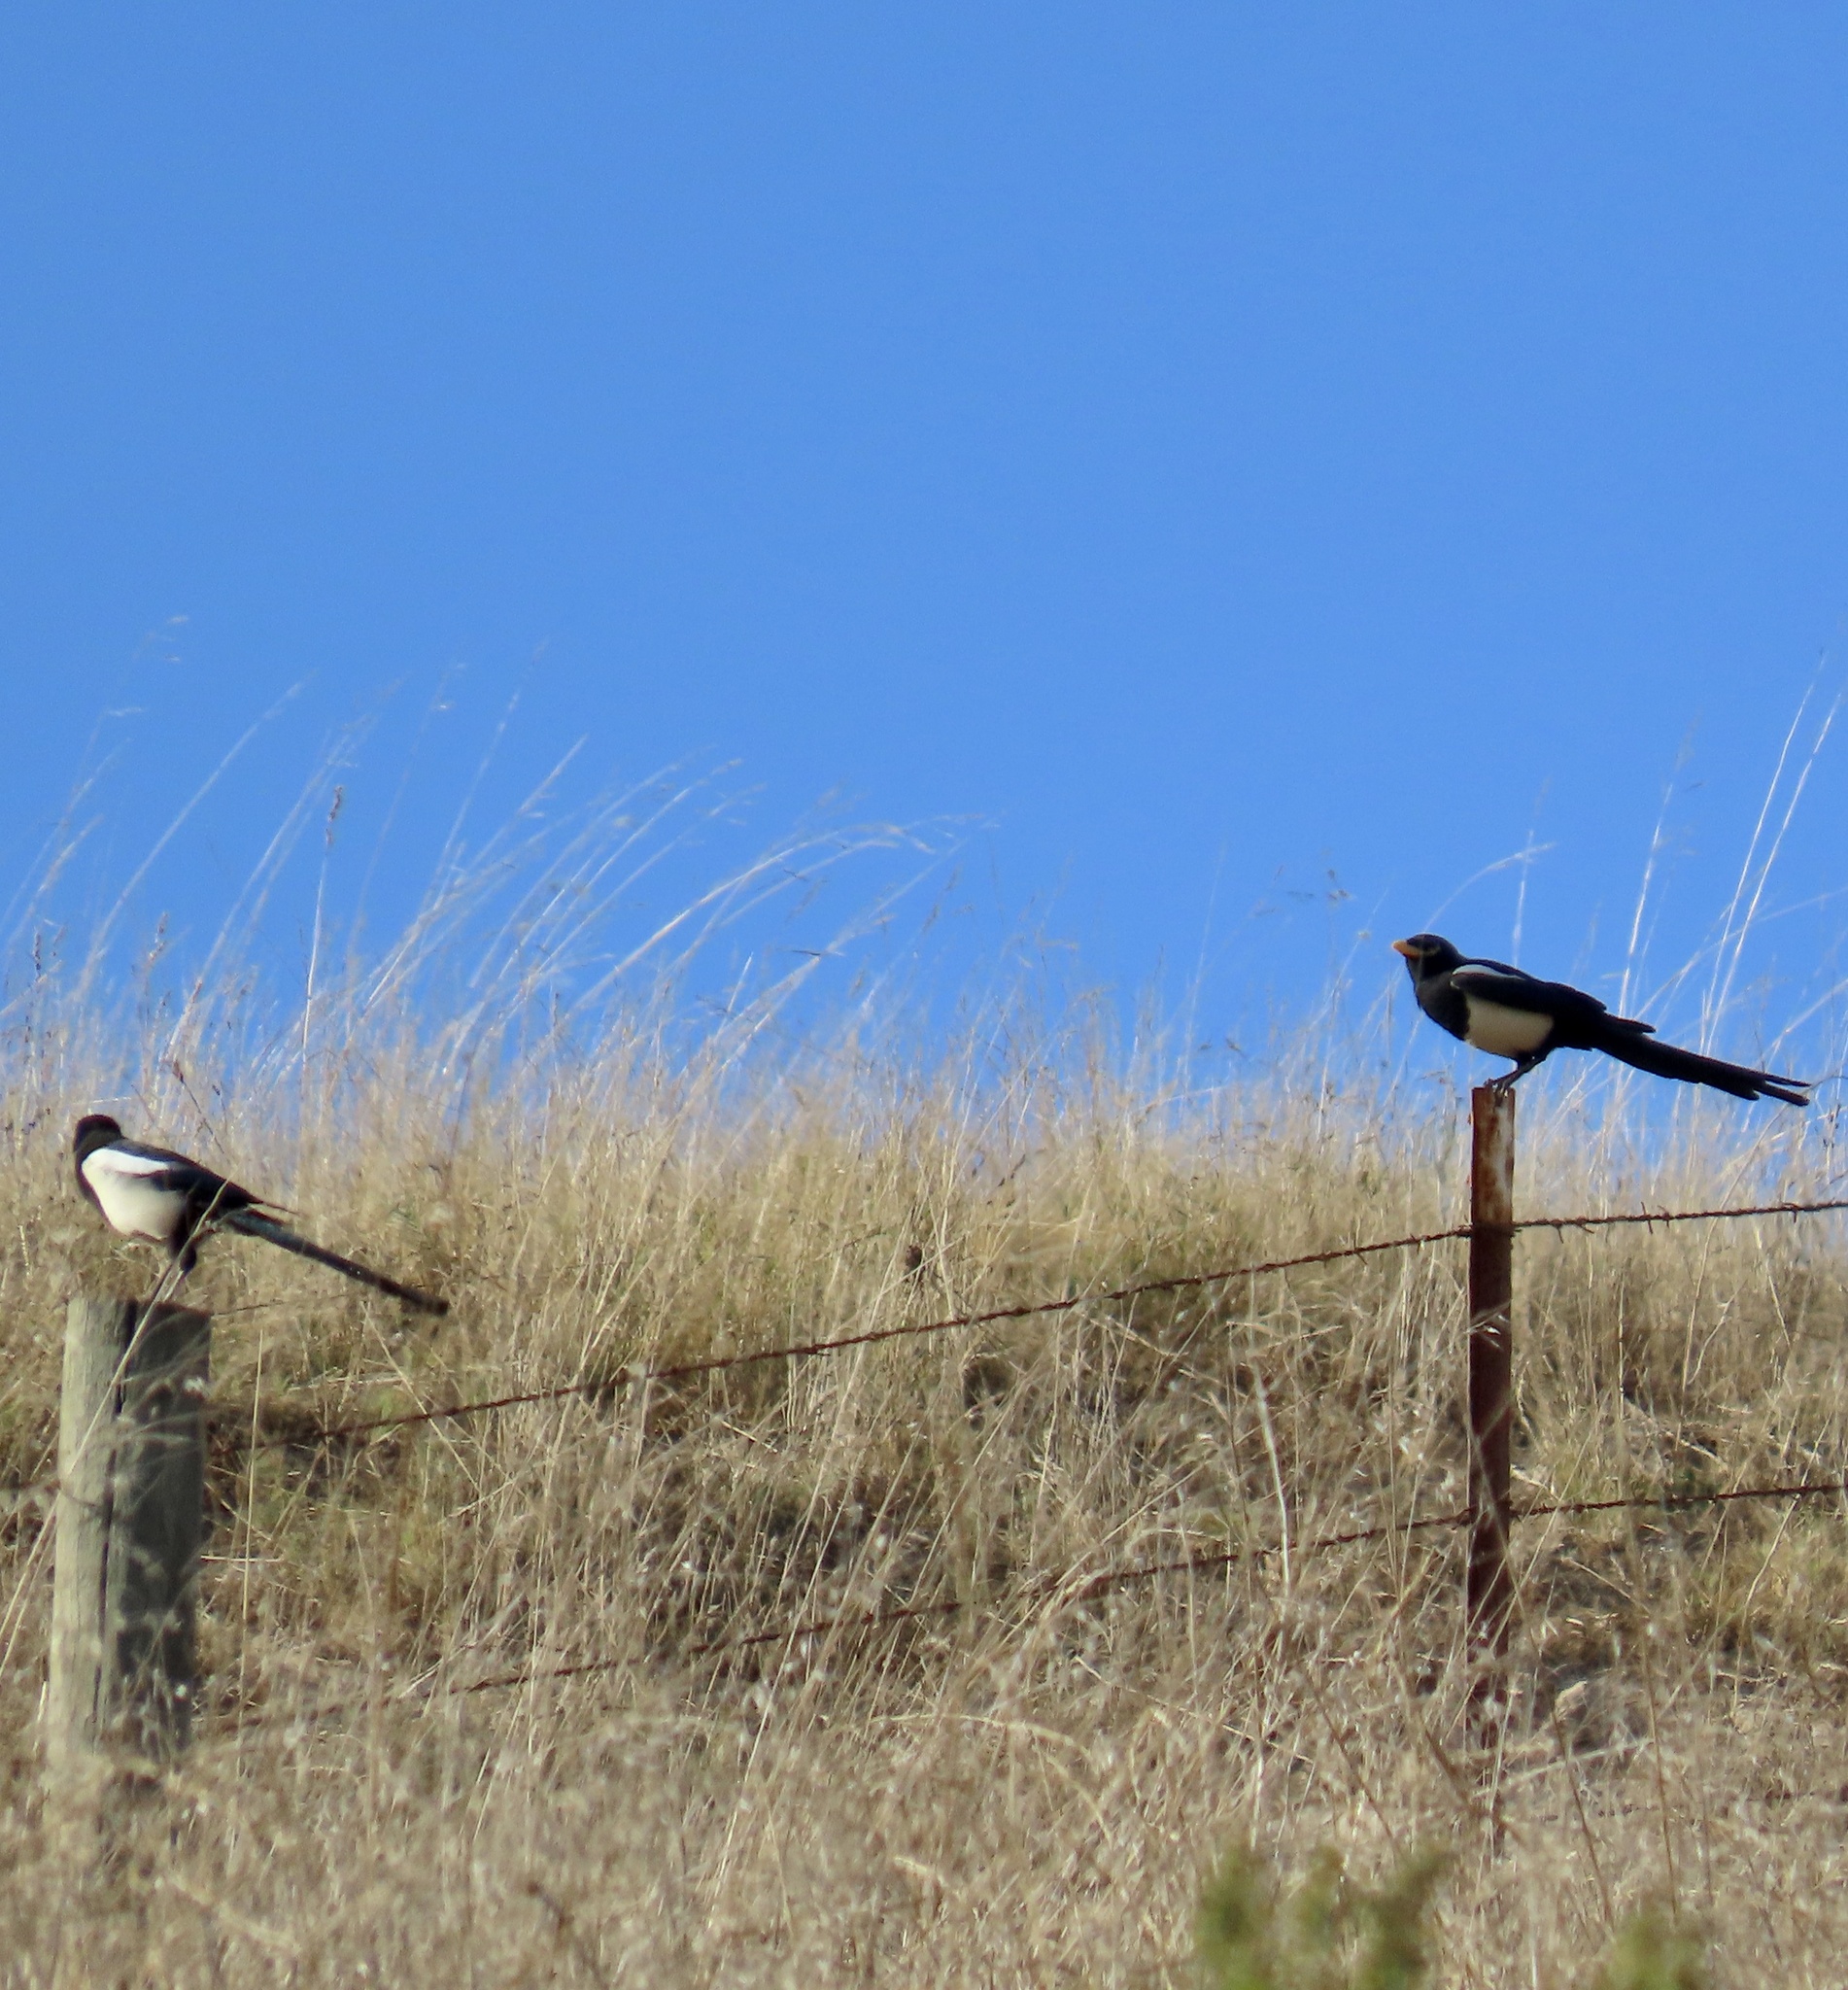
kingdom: Animalia
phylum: Chordata
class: Aves
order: Passeriformes
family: Corvidae
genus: Pica
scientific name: Pica nuttalli
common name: Yellow-billed magpie
